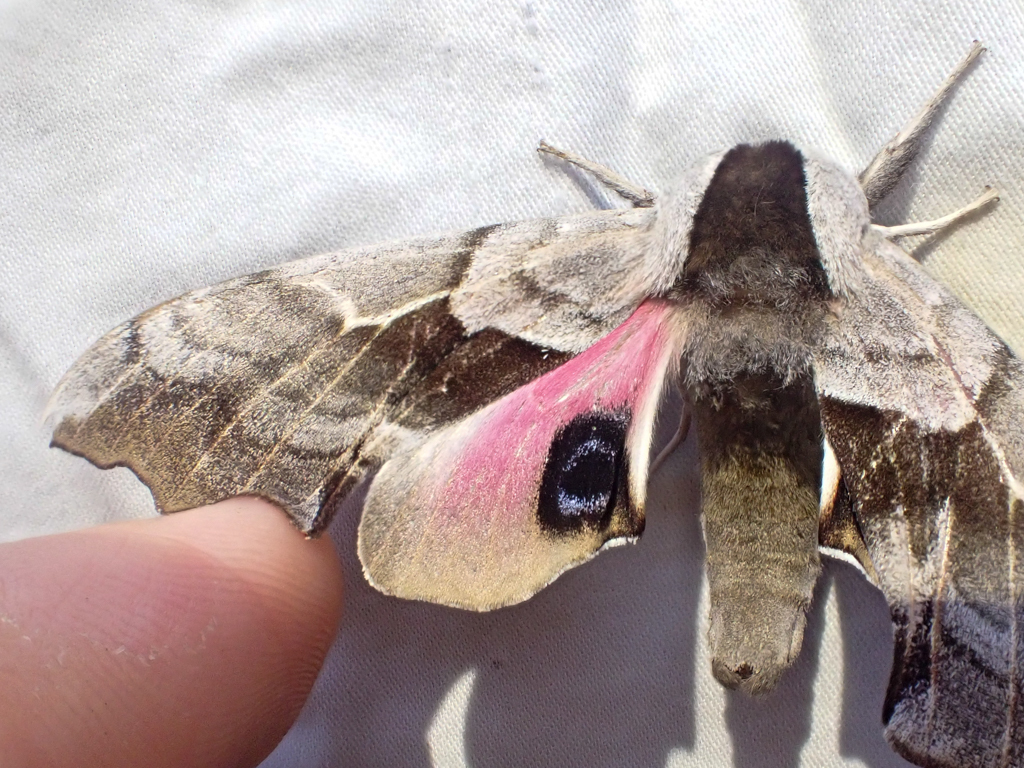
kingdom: Animalia
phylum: Arthropoda
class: Insecta
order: Lepidoptera
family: Sphingidae
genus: Smerinthus
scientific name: Smerinthus cerisyi
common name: Cerisy's sphinx moth
